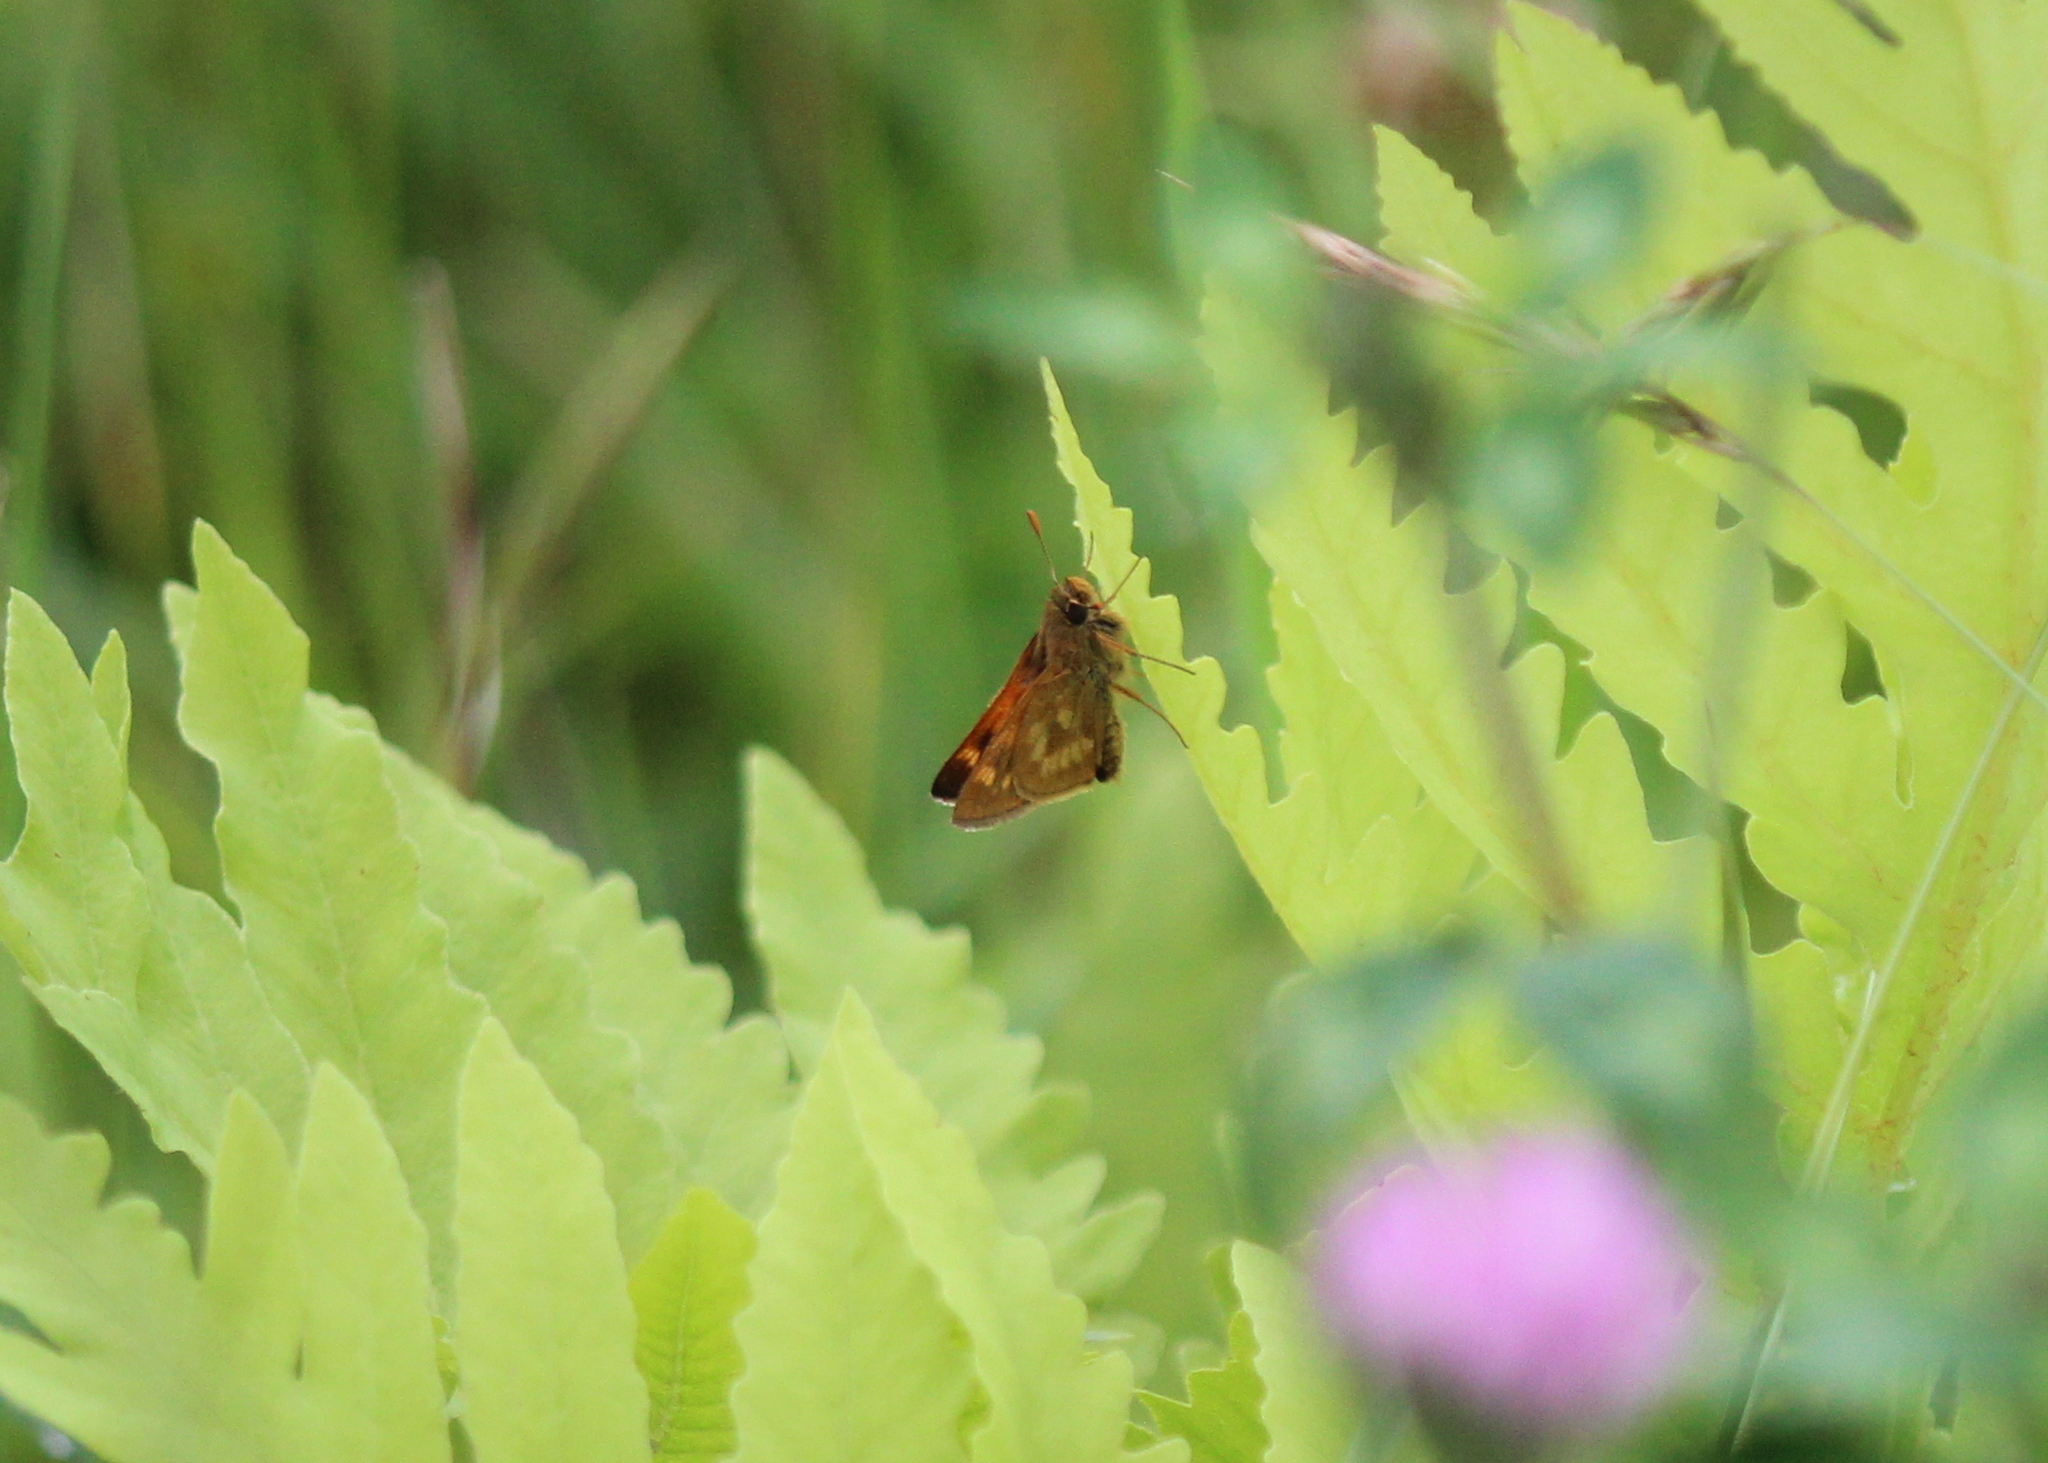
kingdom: Animalia
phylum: Arthropoda
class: Insecta
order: Lepidoptera
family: Hesperiidae
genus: Polites
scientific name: Polites mystic
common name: Long dash
